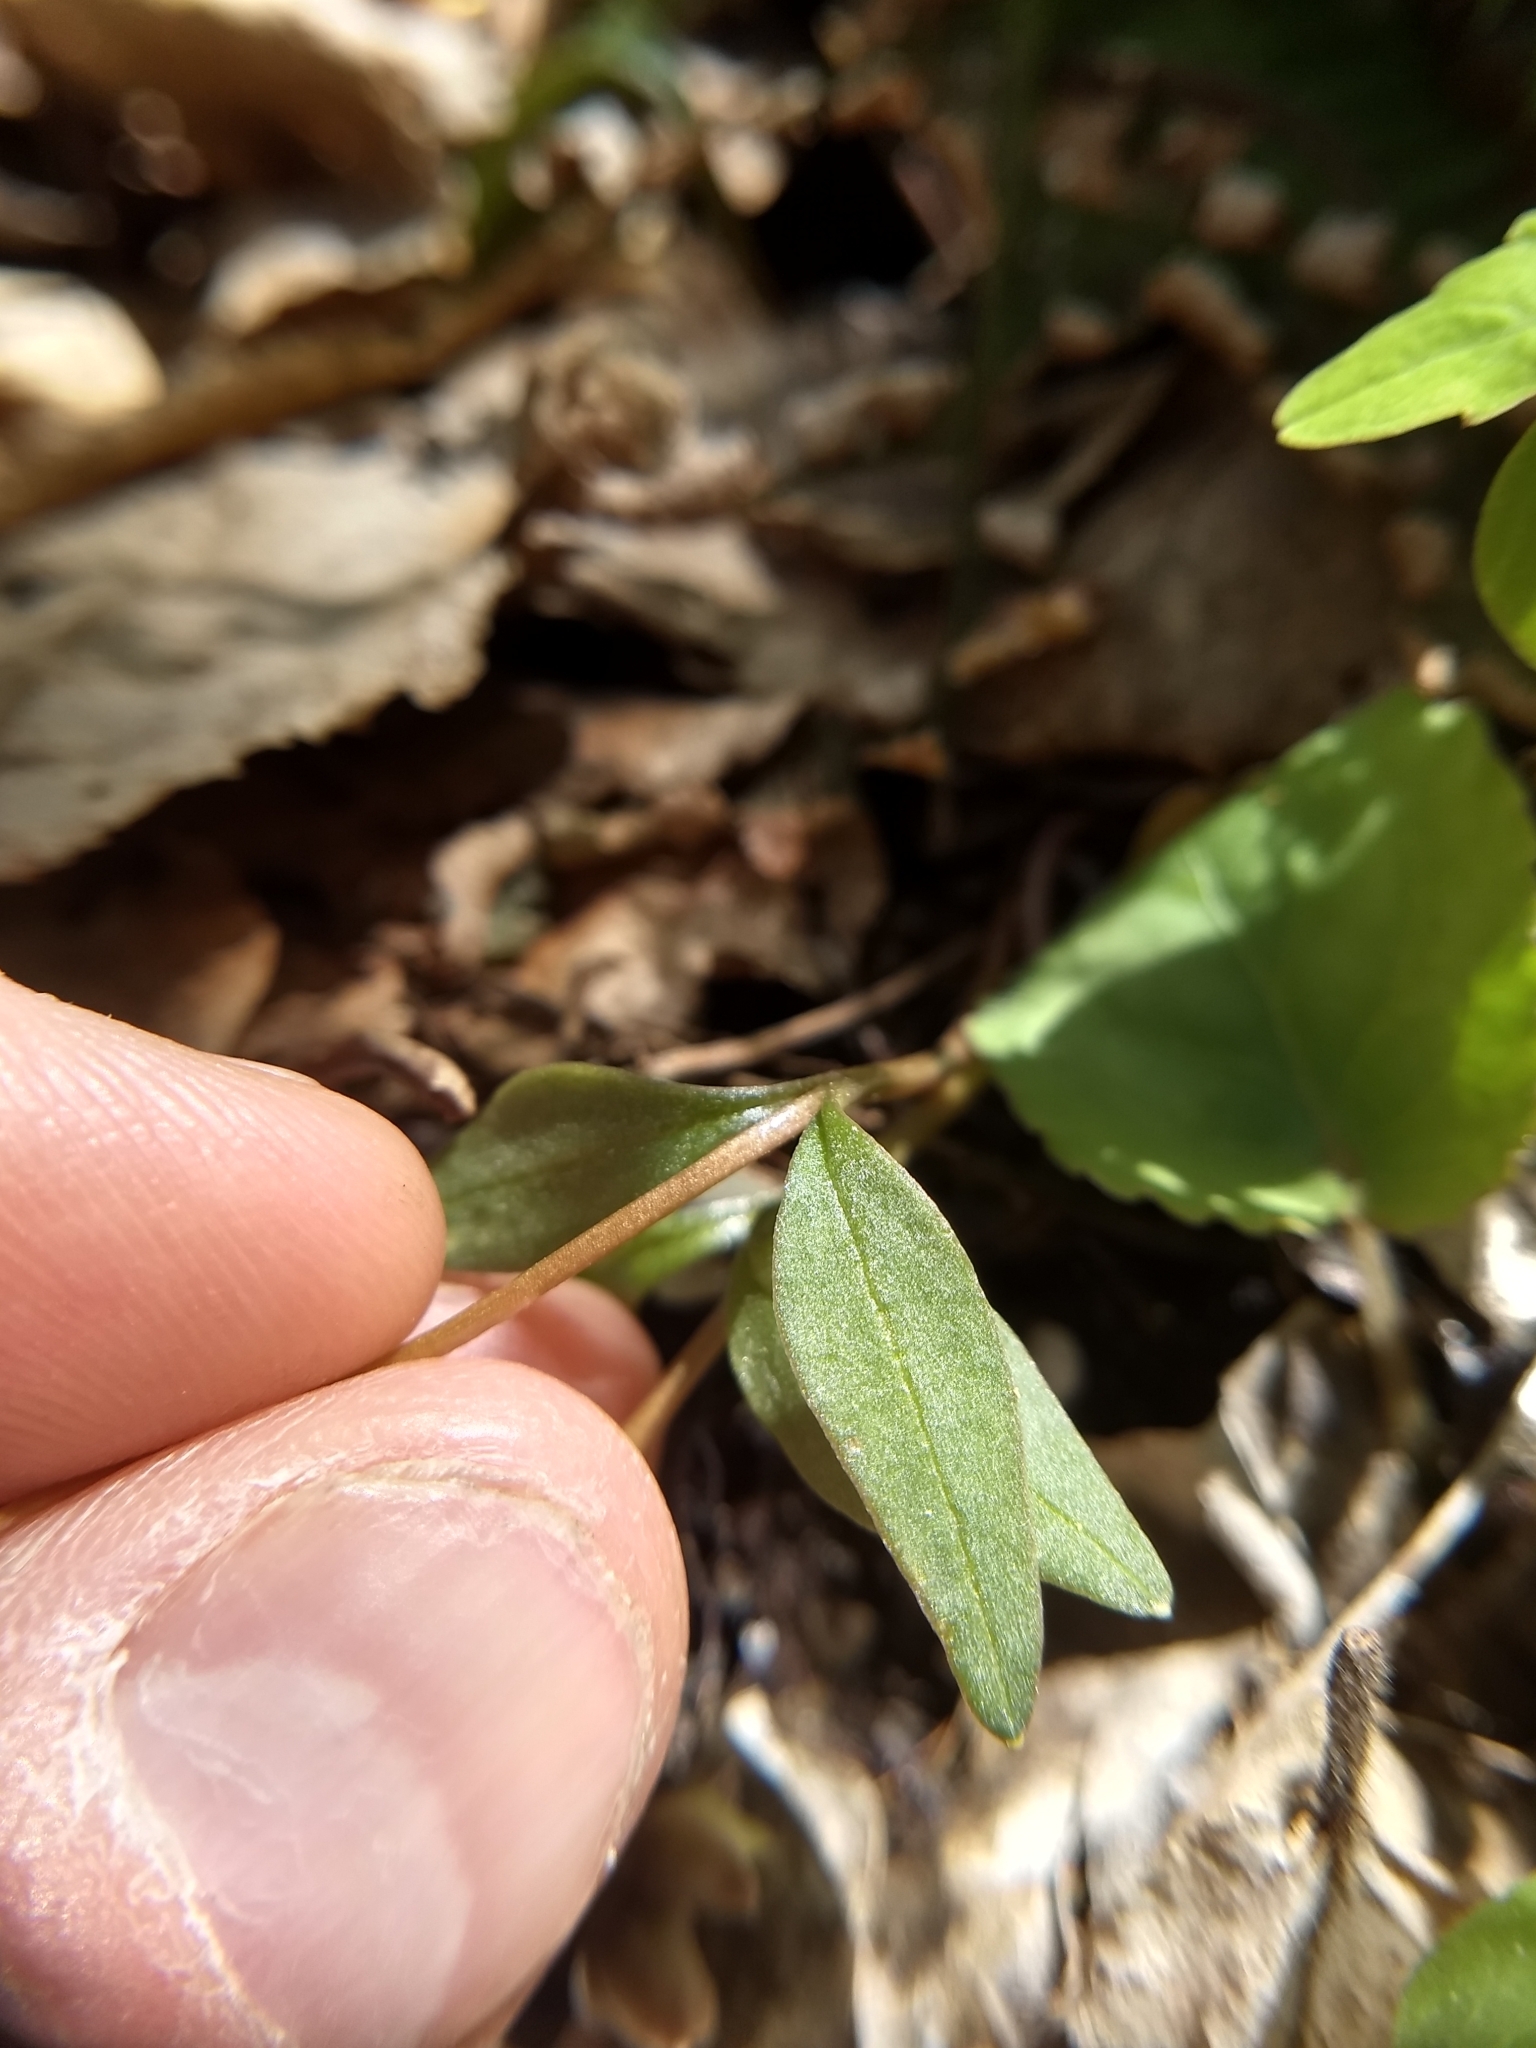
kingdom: Plantae
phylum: Tracheophyta
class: Magnoliopsida
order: Caryophyllales
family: Montiaceae
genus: Claytonia
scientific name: Claytonia caroliniana
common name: Carolina spring beauty
